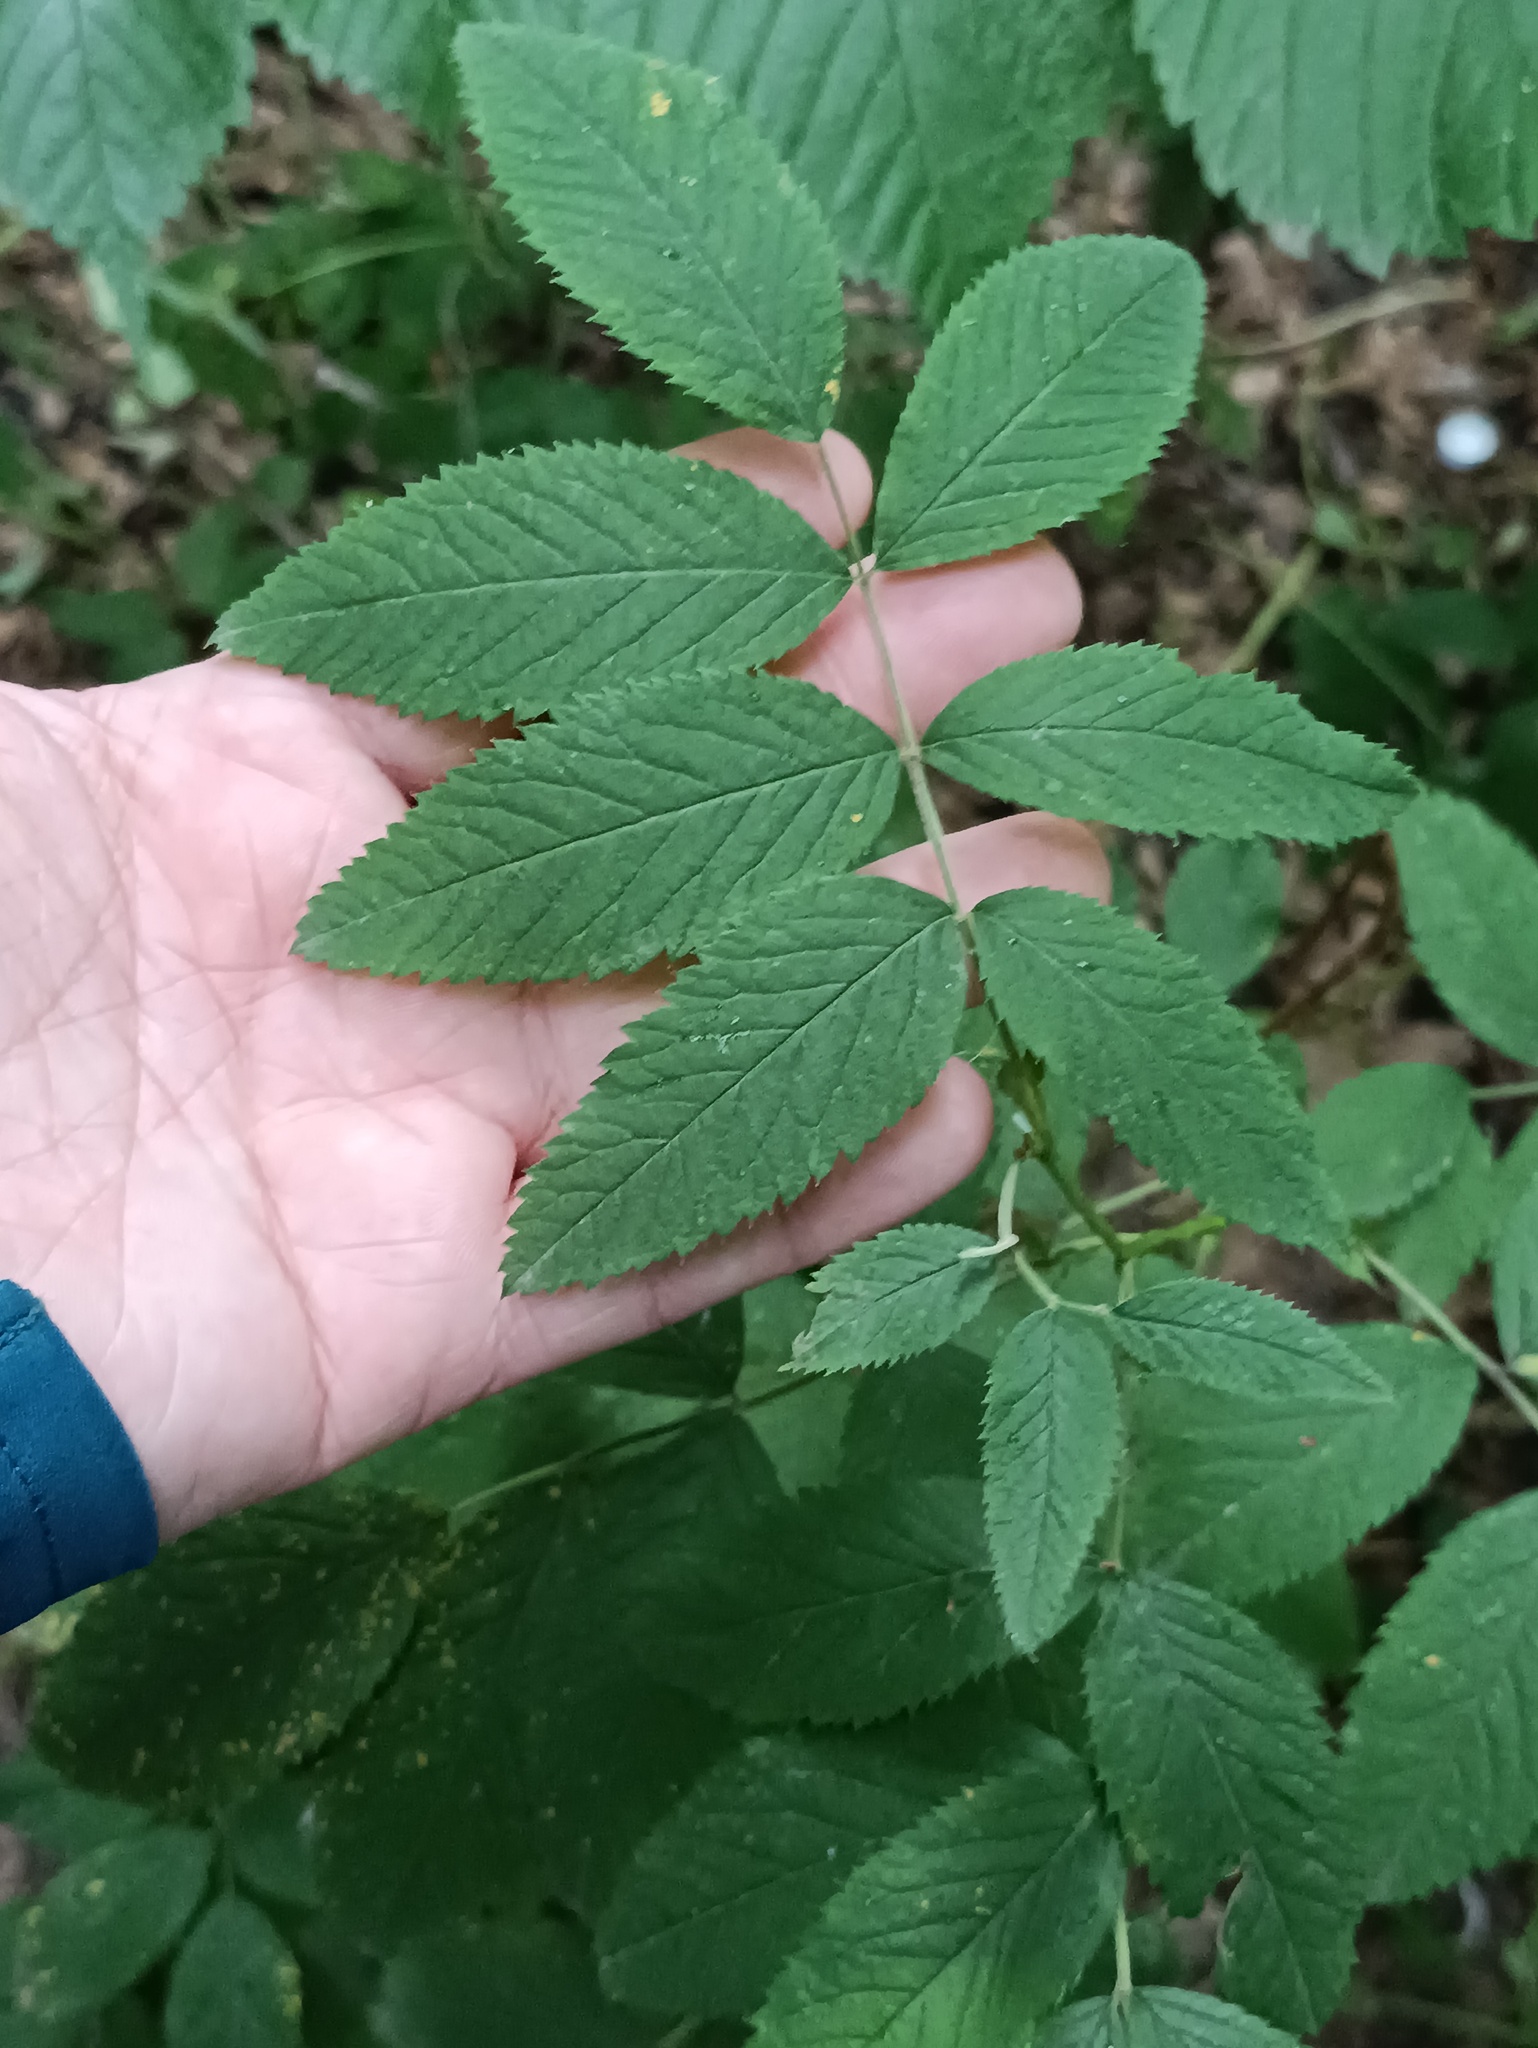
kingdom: Plantae
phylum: Tracheophyta
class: Magnoliopsida
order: Rosales
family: Rosaceae
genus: Rosa
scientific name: Rosa majalis
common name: Cinnamon rose
